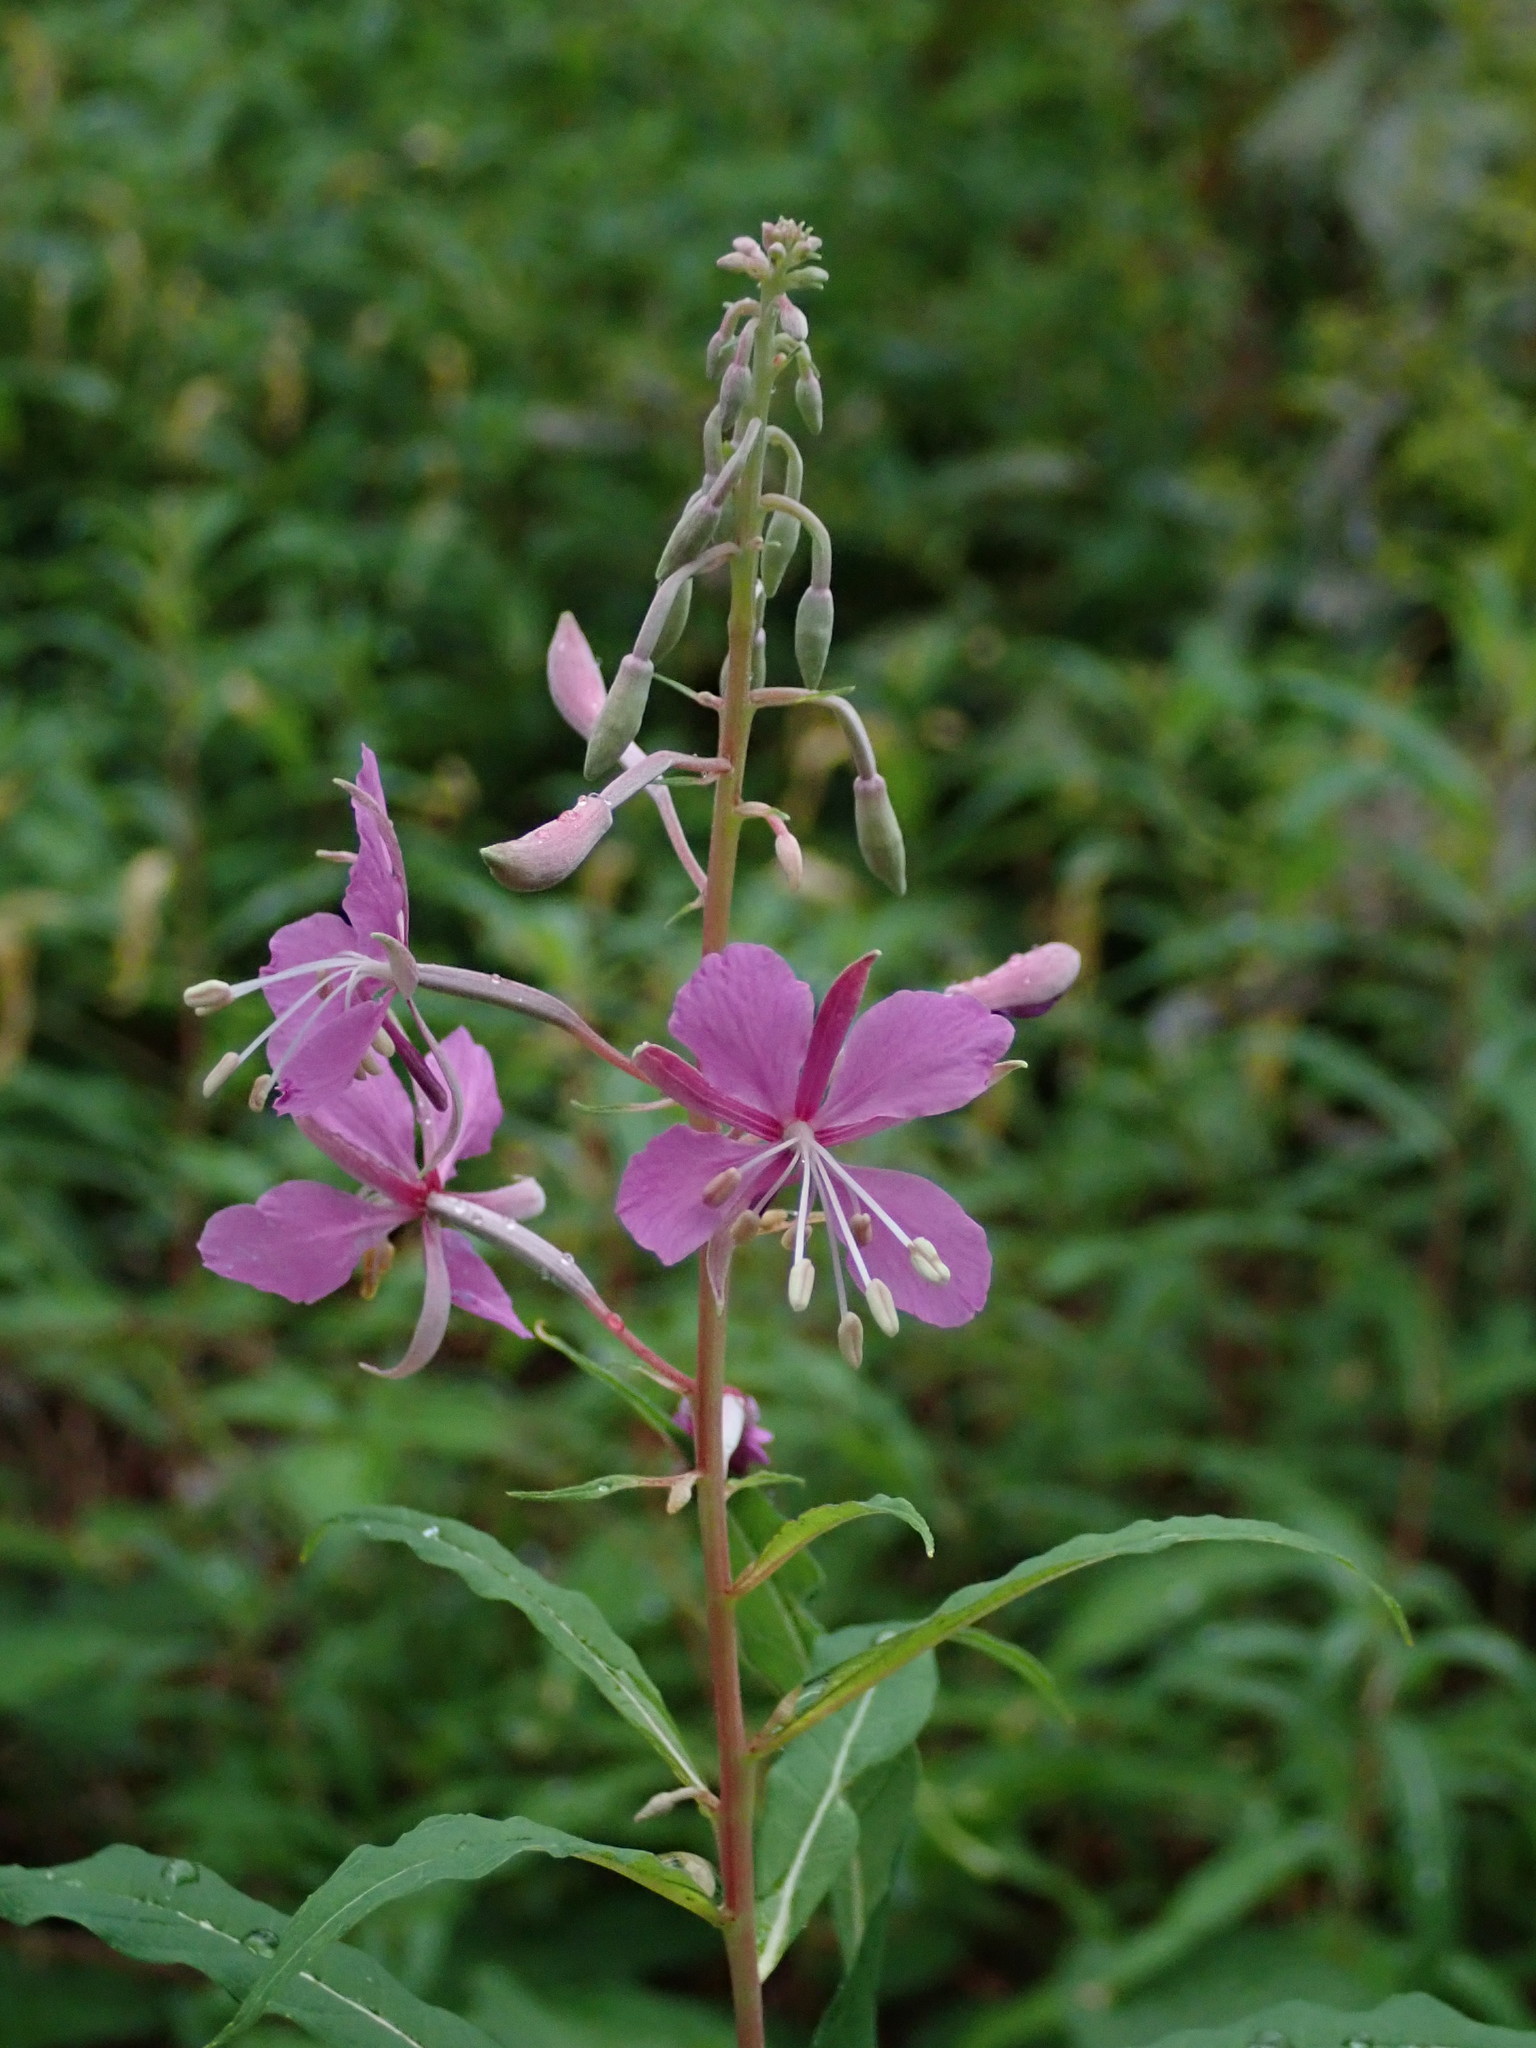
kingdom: Plantae
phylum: Tracheophyta
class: Magnoliopsida
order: Myrtales
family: Onagraceae
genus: Chamaenerion
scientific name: Chamaenerion angustifolium
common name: Fireweed
